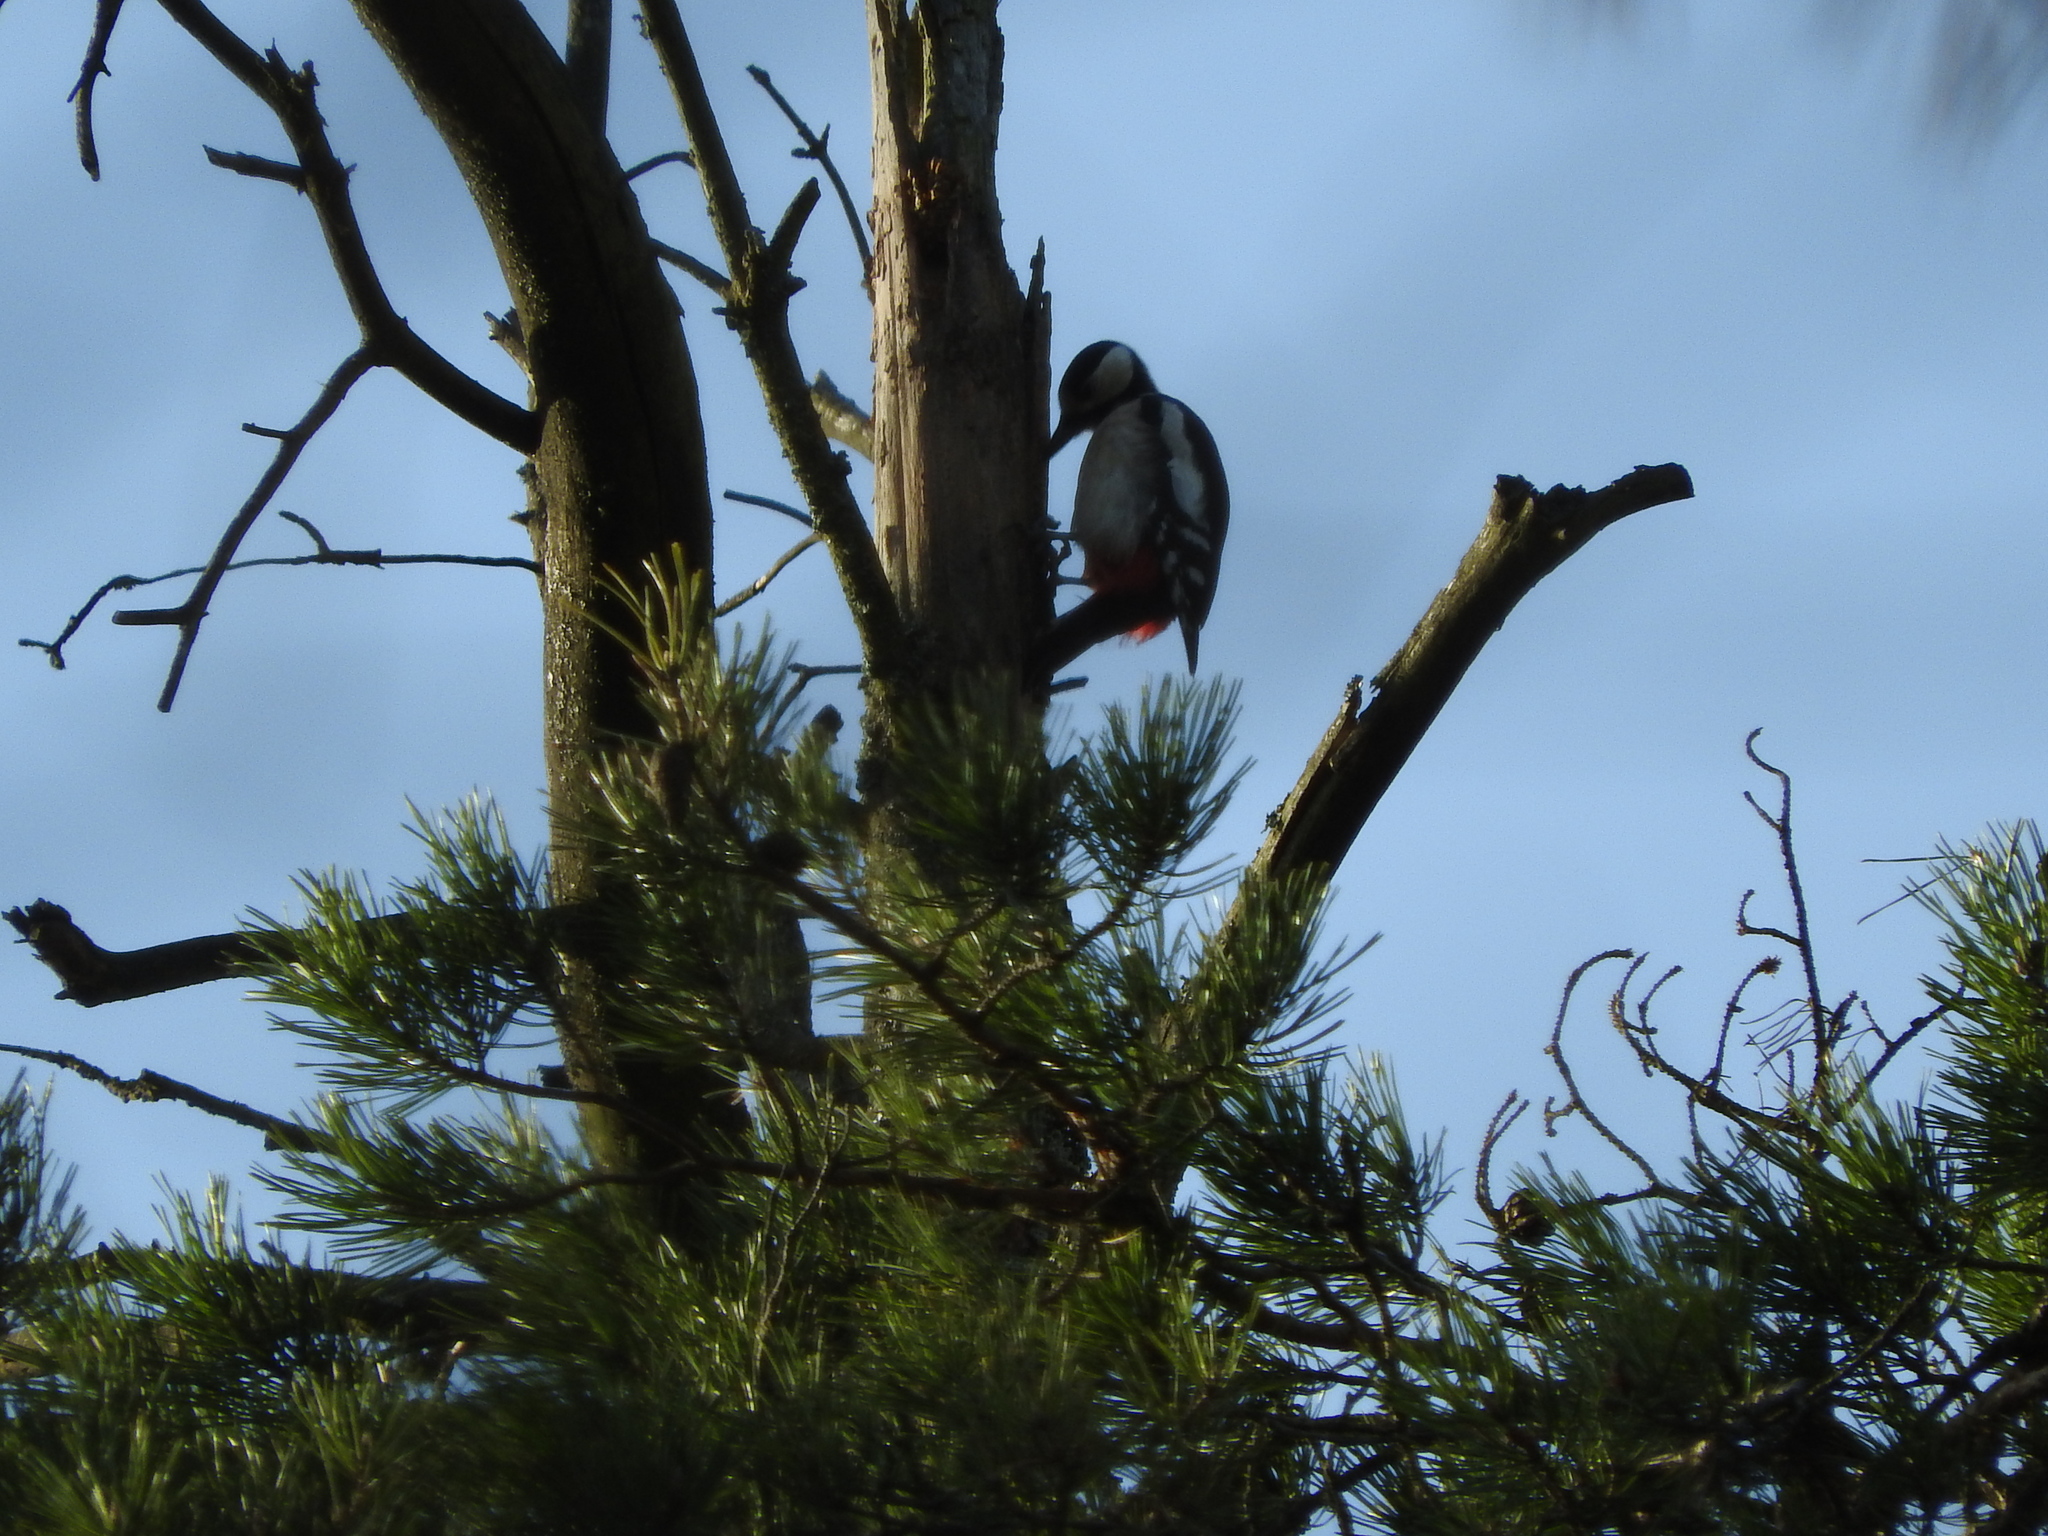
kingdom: Animalia
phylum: Chordata
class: Aves
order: Piciformes
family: Picidae
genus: Dendrocopos
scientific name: Dendrocopos major
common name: Great spotted woodpecker
